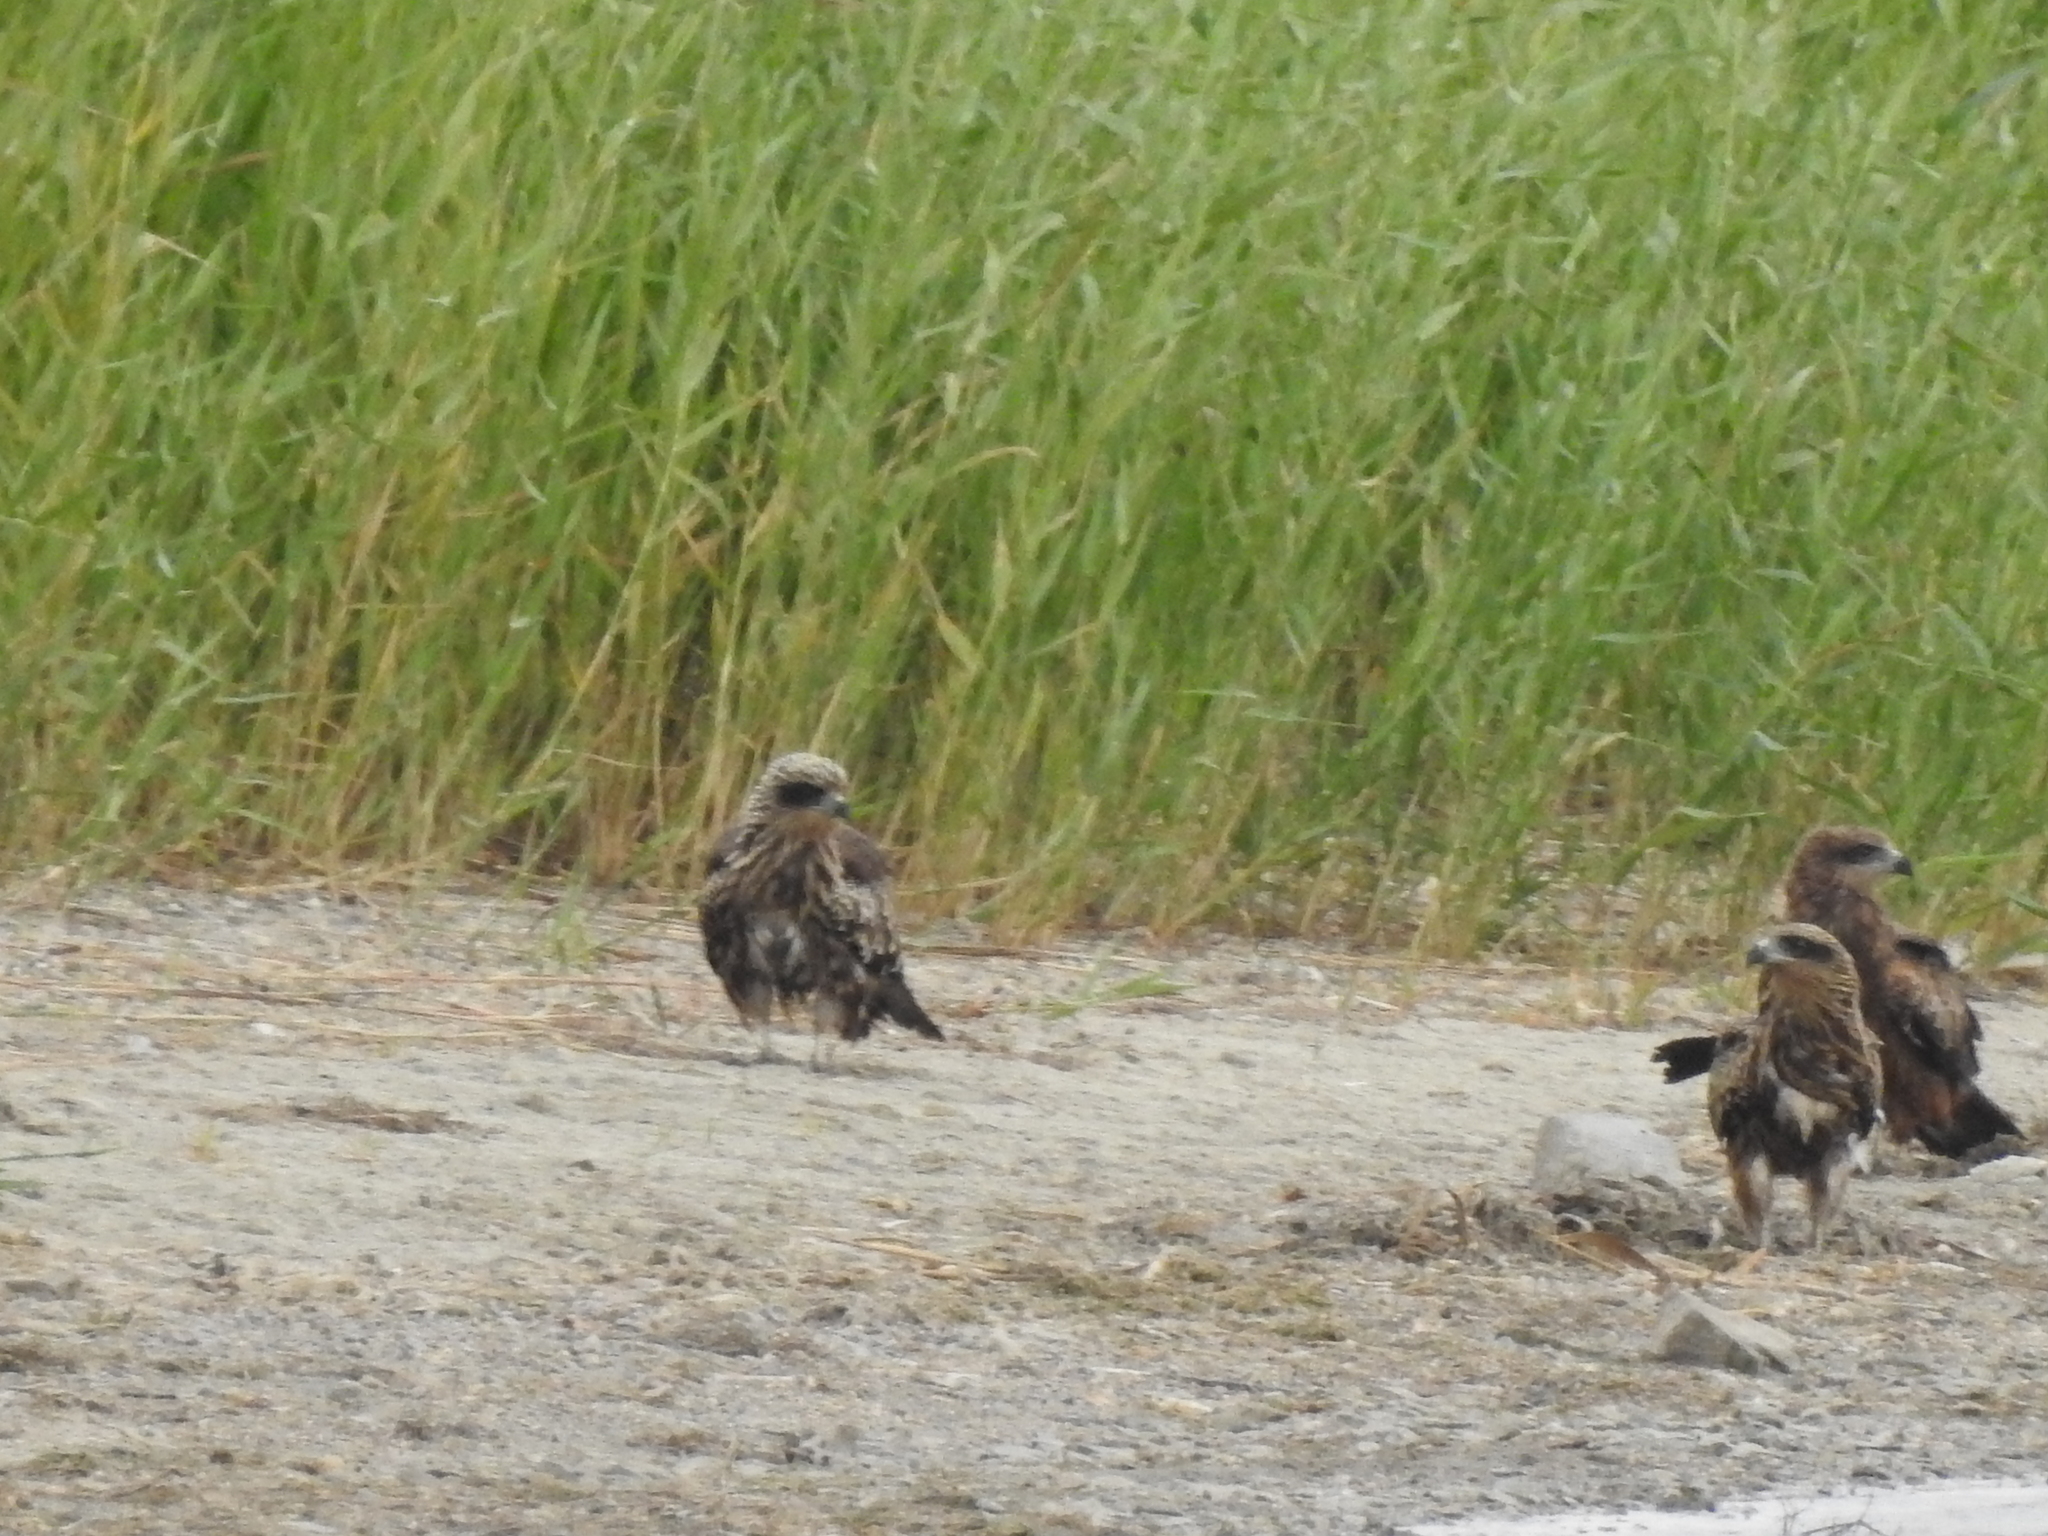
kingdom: Animalia
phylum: Chordata
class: Aves
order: Accipitriformes
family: Accipitridae
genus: Milvus
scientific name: Milvus migrans
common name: Black kite
